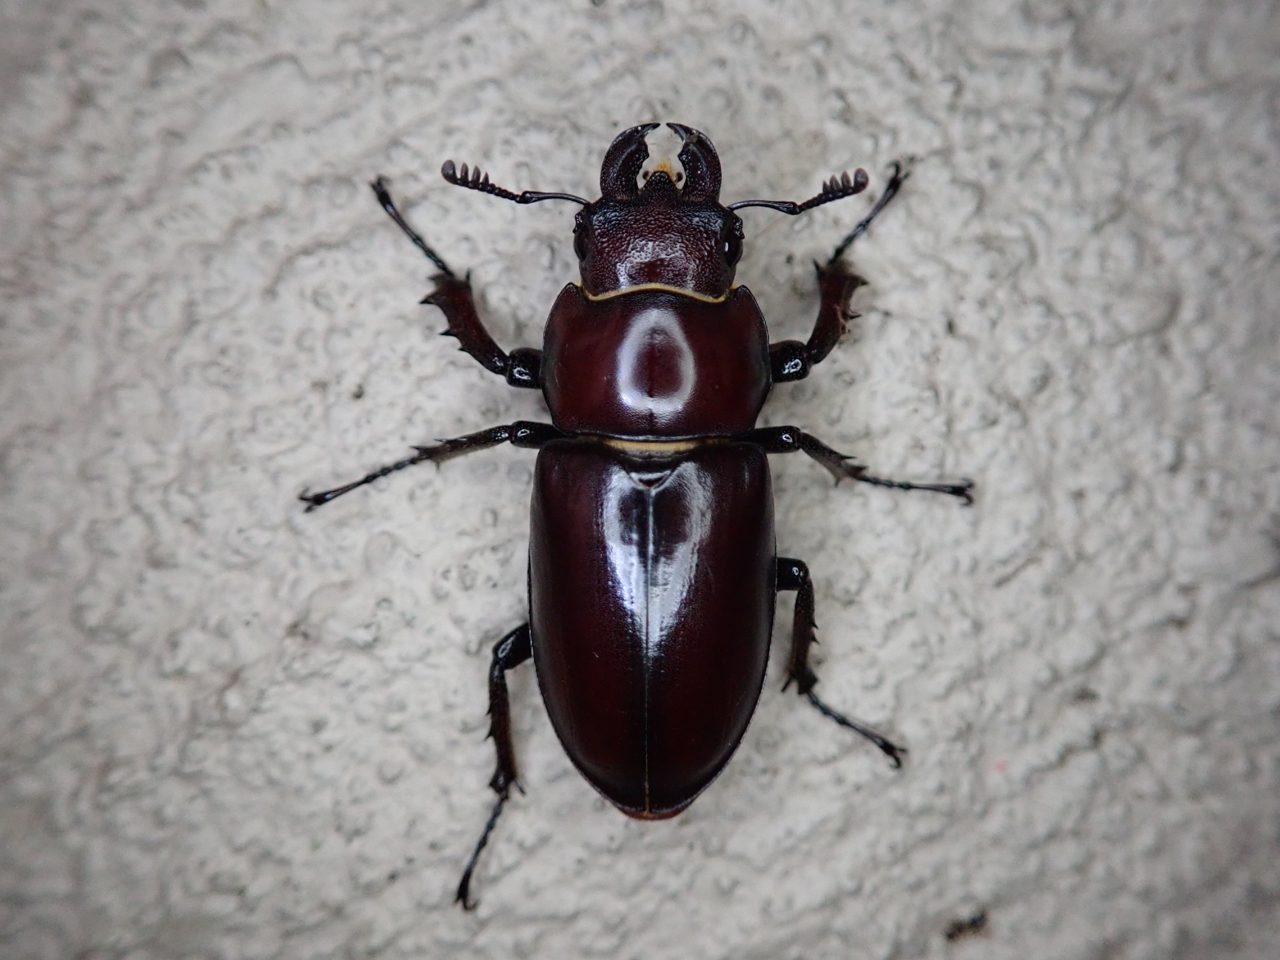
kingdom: Animalia
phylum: Arthropoda
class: Insecta
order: Coleoptera
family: Lucanidae
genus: Lucanus
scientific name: Lucanus elaphus
